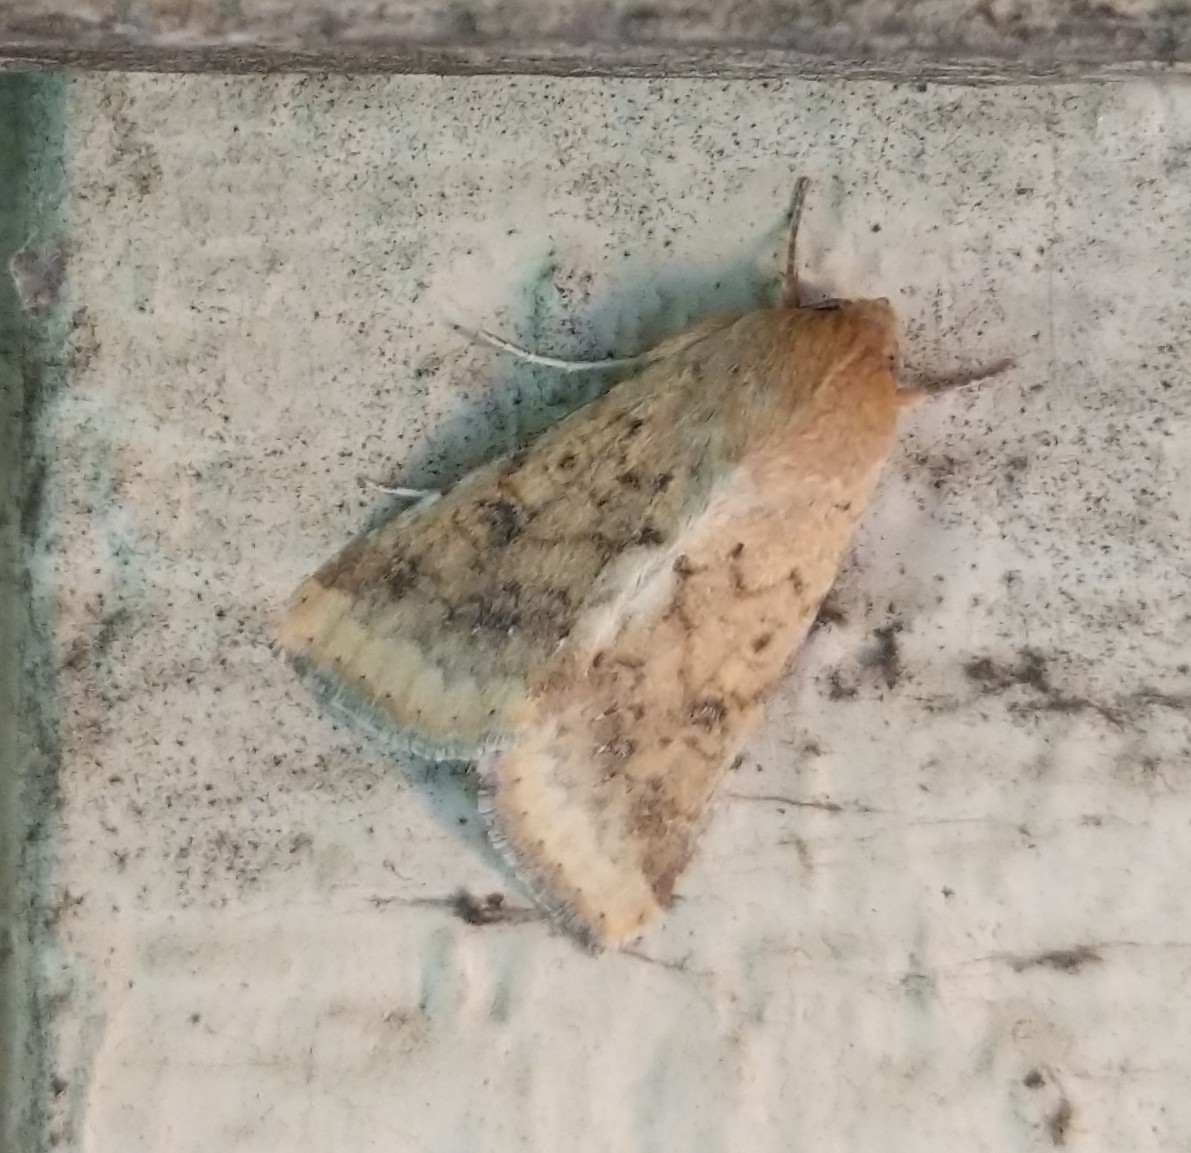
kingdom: Animalia
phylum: Arthropoda
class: Insecta
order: Lepidoptera
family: Noctuidae
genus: Helicoverpa
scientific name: Helicoverpa zea
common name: Bollworm
